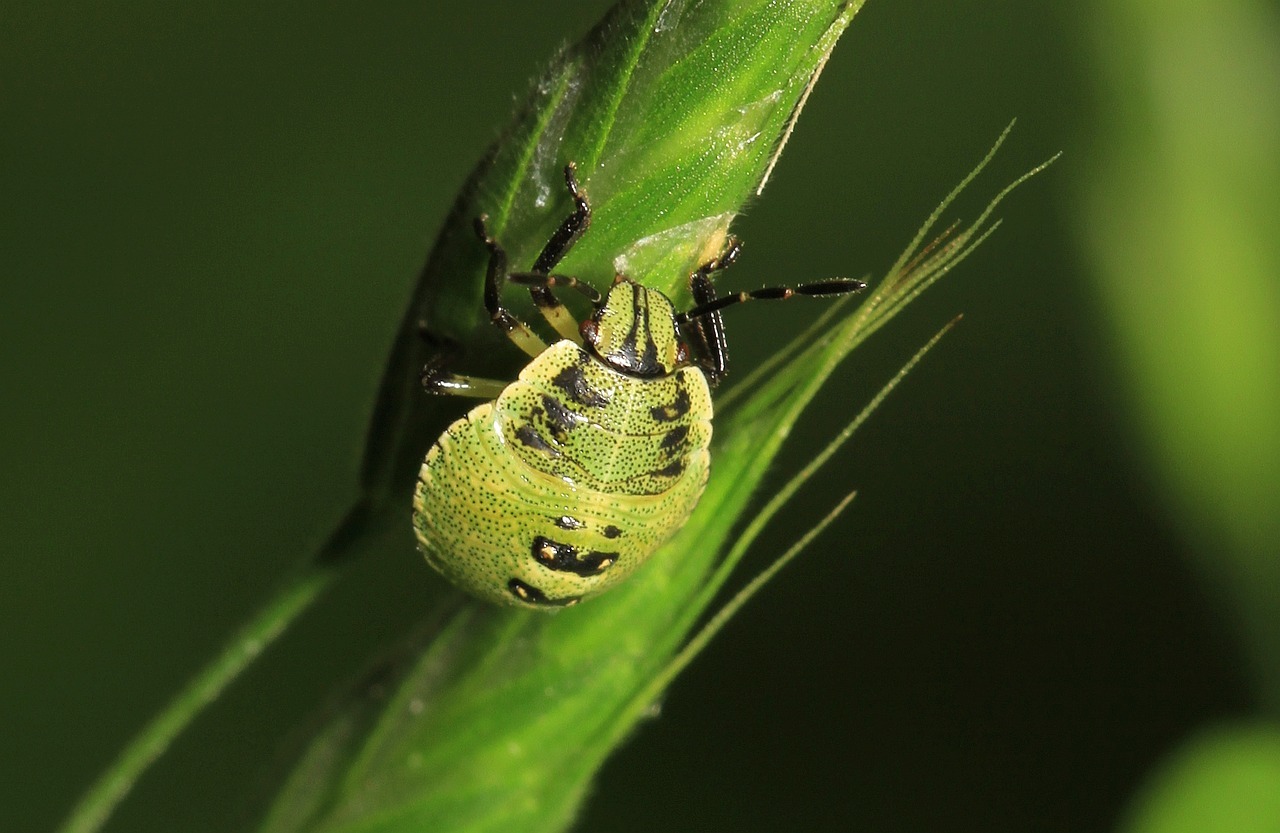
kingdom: Animalia
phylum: Arthropoda
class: Insecta
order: Hemiptera
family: Pentatomidae
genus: Palomena
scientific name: Palomena prasina
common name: Green shieldbug
